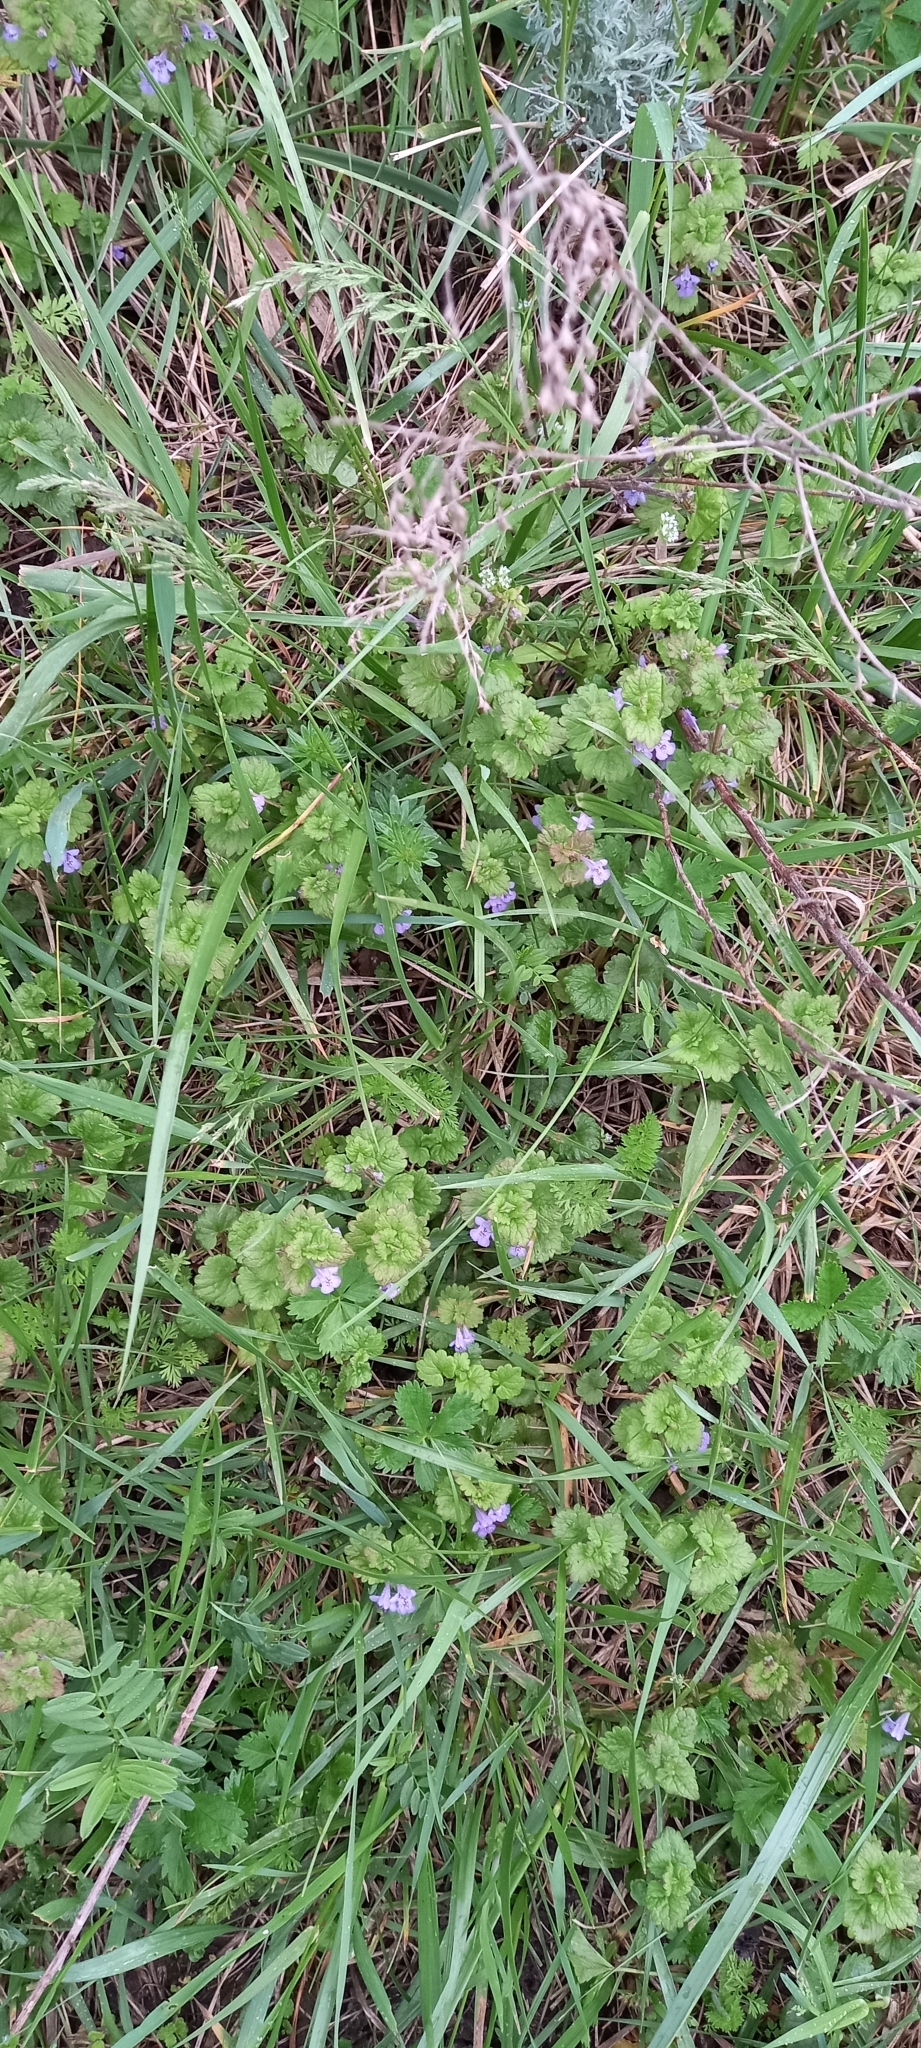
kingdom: Plantae
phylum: Tracheophyta
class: Magnoliopsida
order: Lamiales
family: Lamiaceae
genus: Glechoma
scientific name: Glechoma hederacea
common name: Ground ivy
